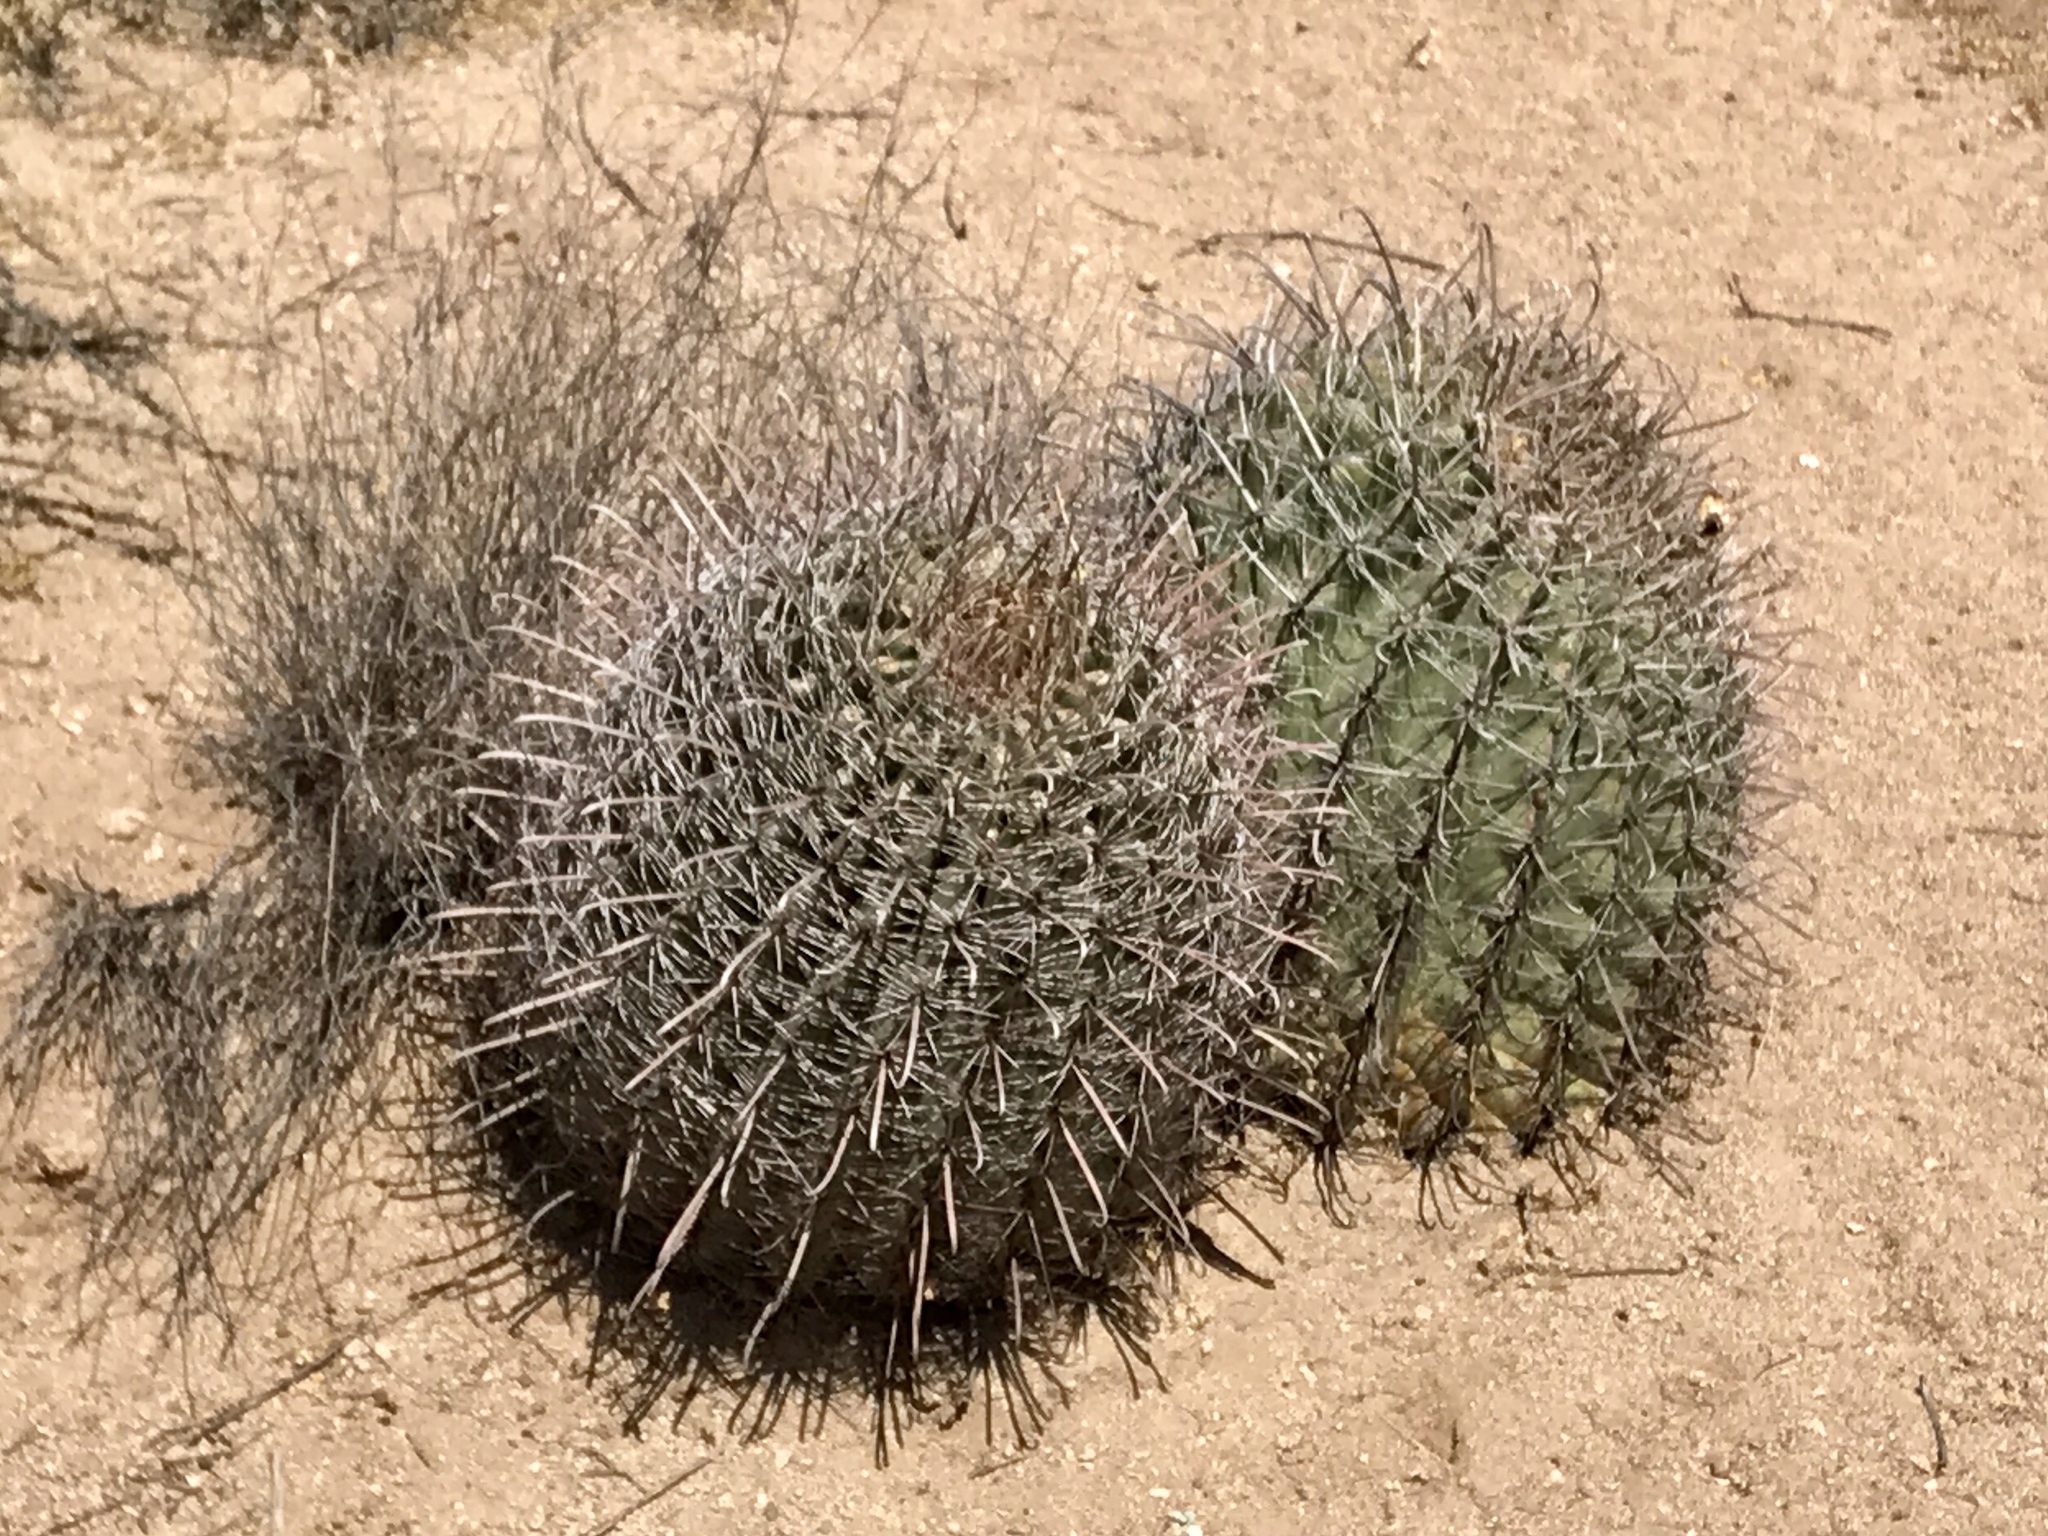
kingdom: Plantae
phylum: Tracheophyta
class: Magnoliopsida
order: Caryophyllales
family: Cactaceae
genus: Ferocactus
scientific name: Ferocactus wislizeni
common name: Candy barrel cactus
